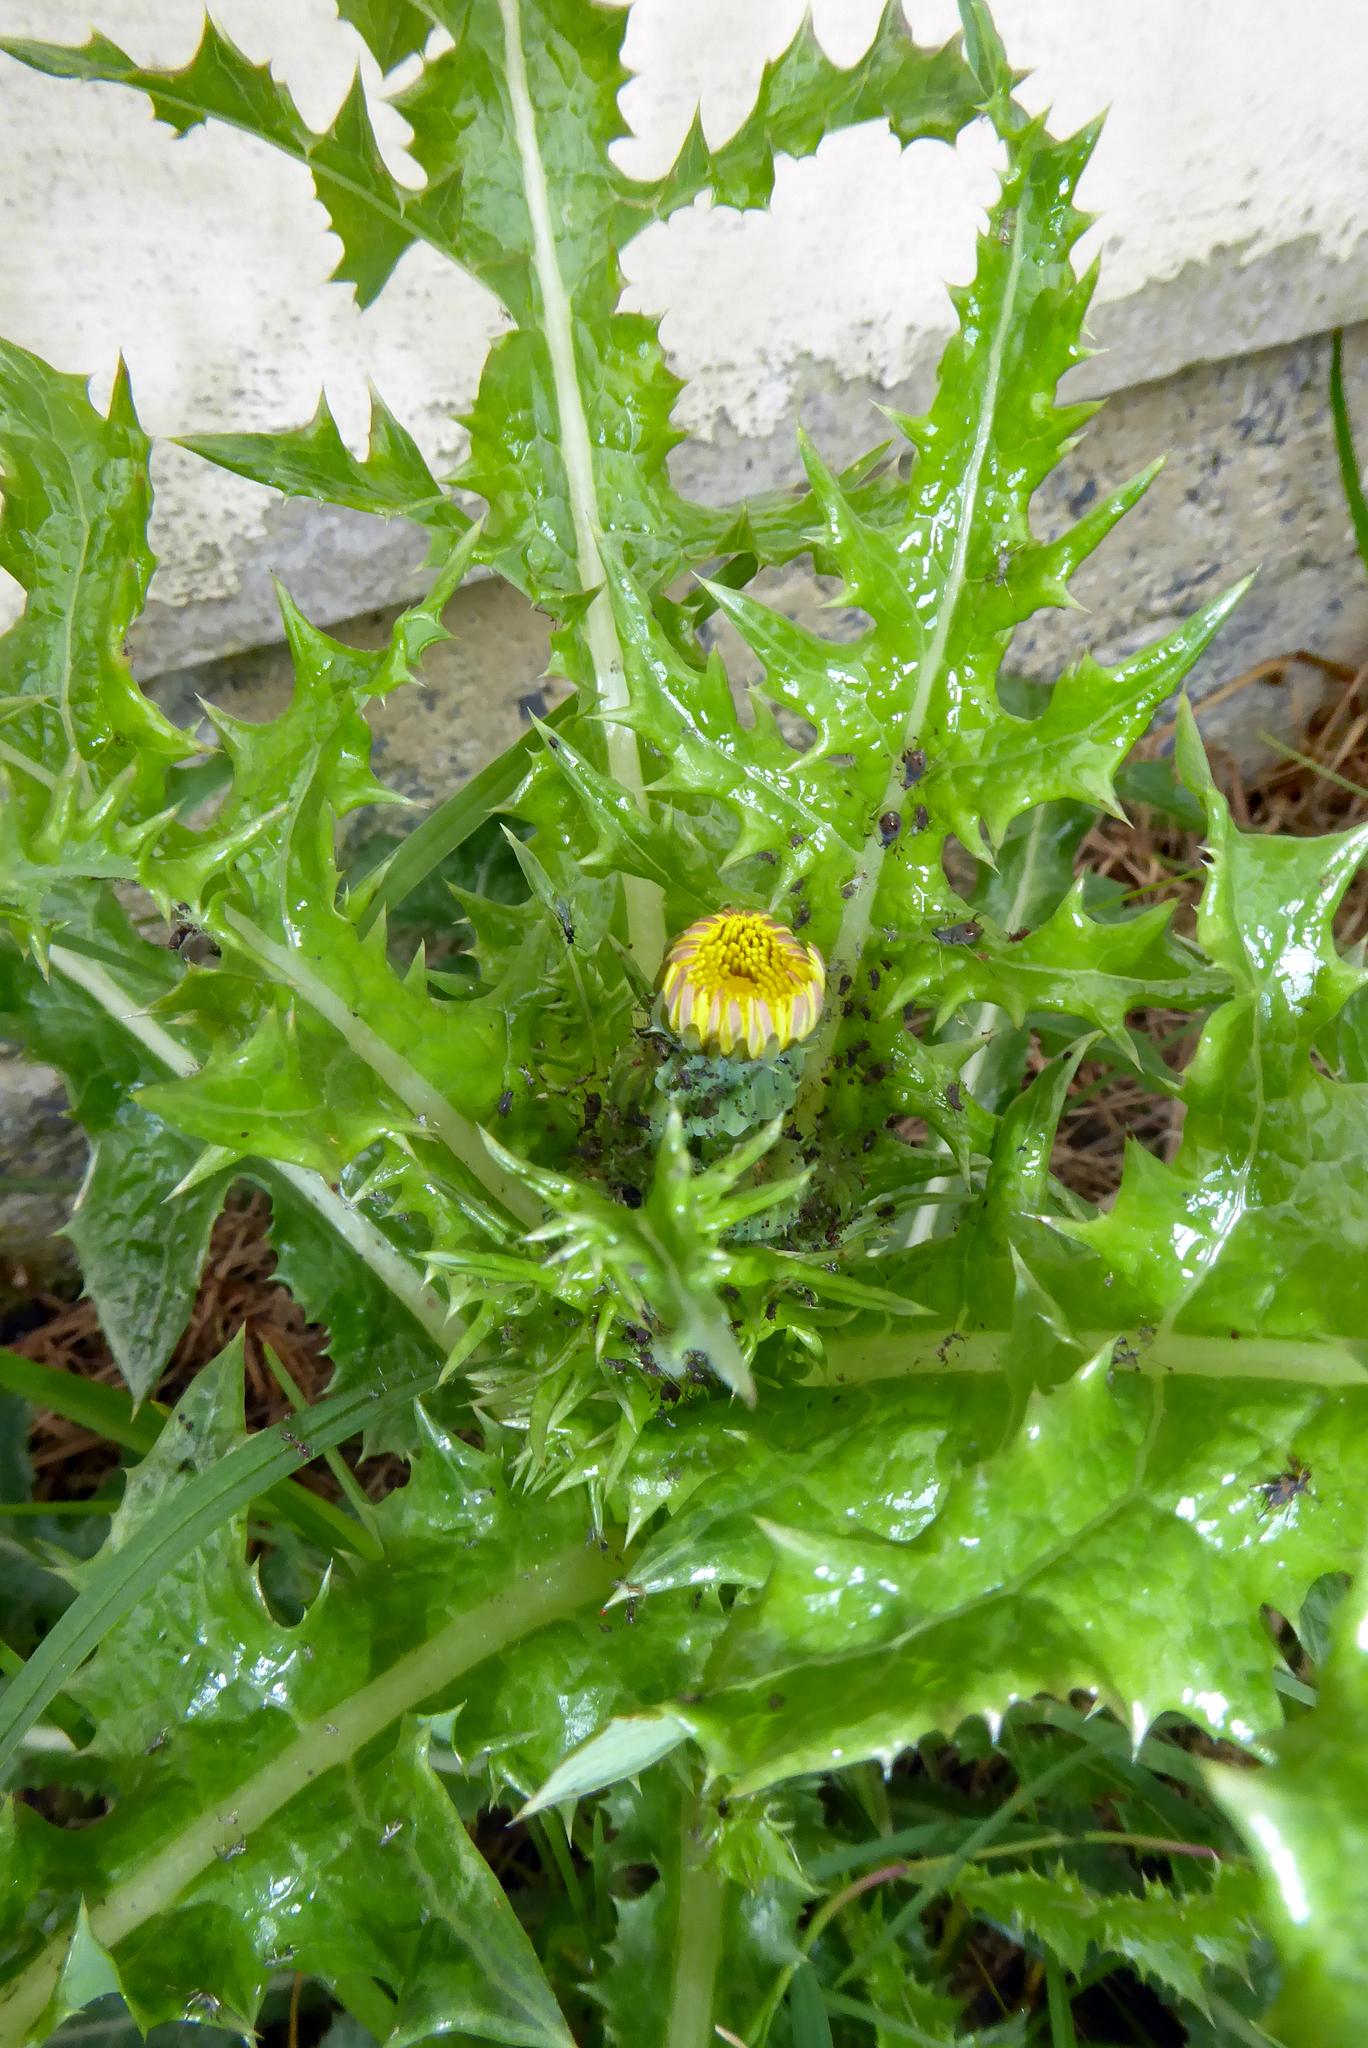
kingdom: Plantae
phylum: Tracheophyta
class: Magnoliopsida
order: Asterales
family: Asteraceae
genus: Sonchus
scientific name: Sonchus asper
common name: Prickly sow-thistle
